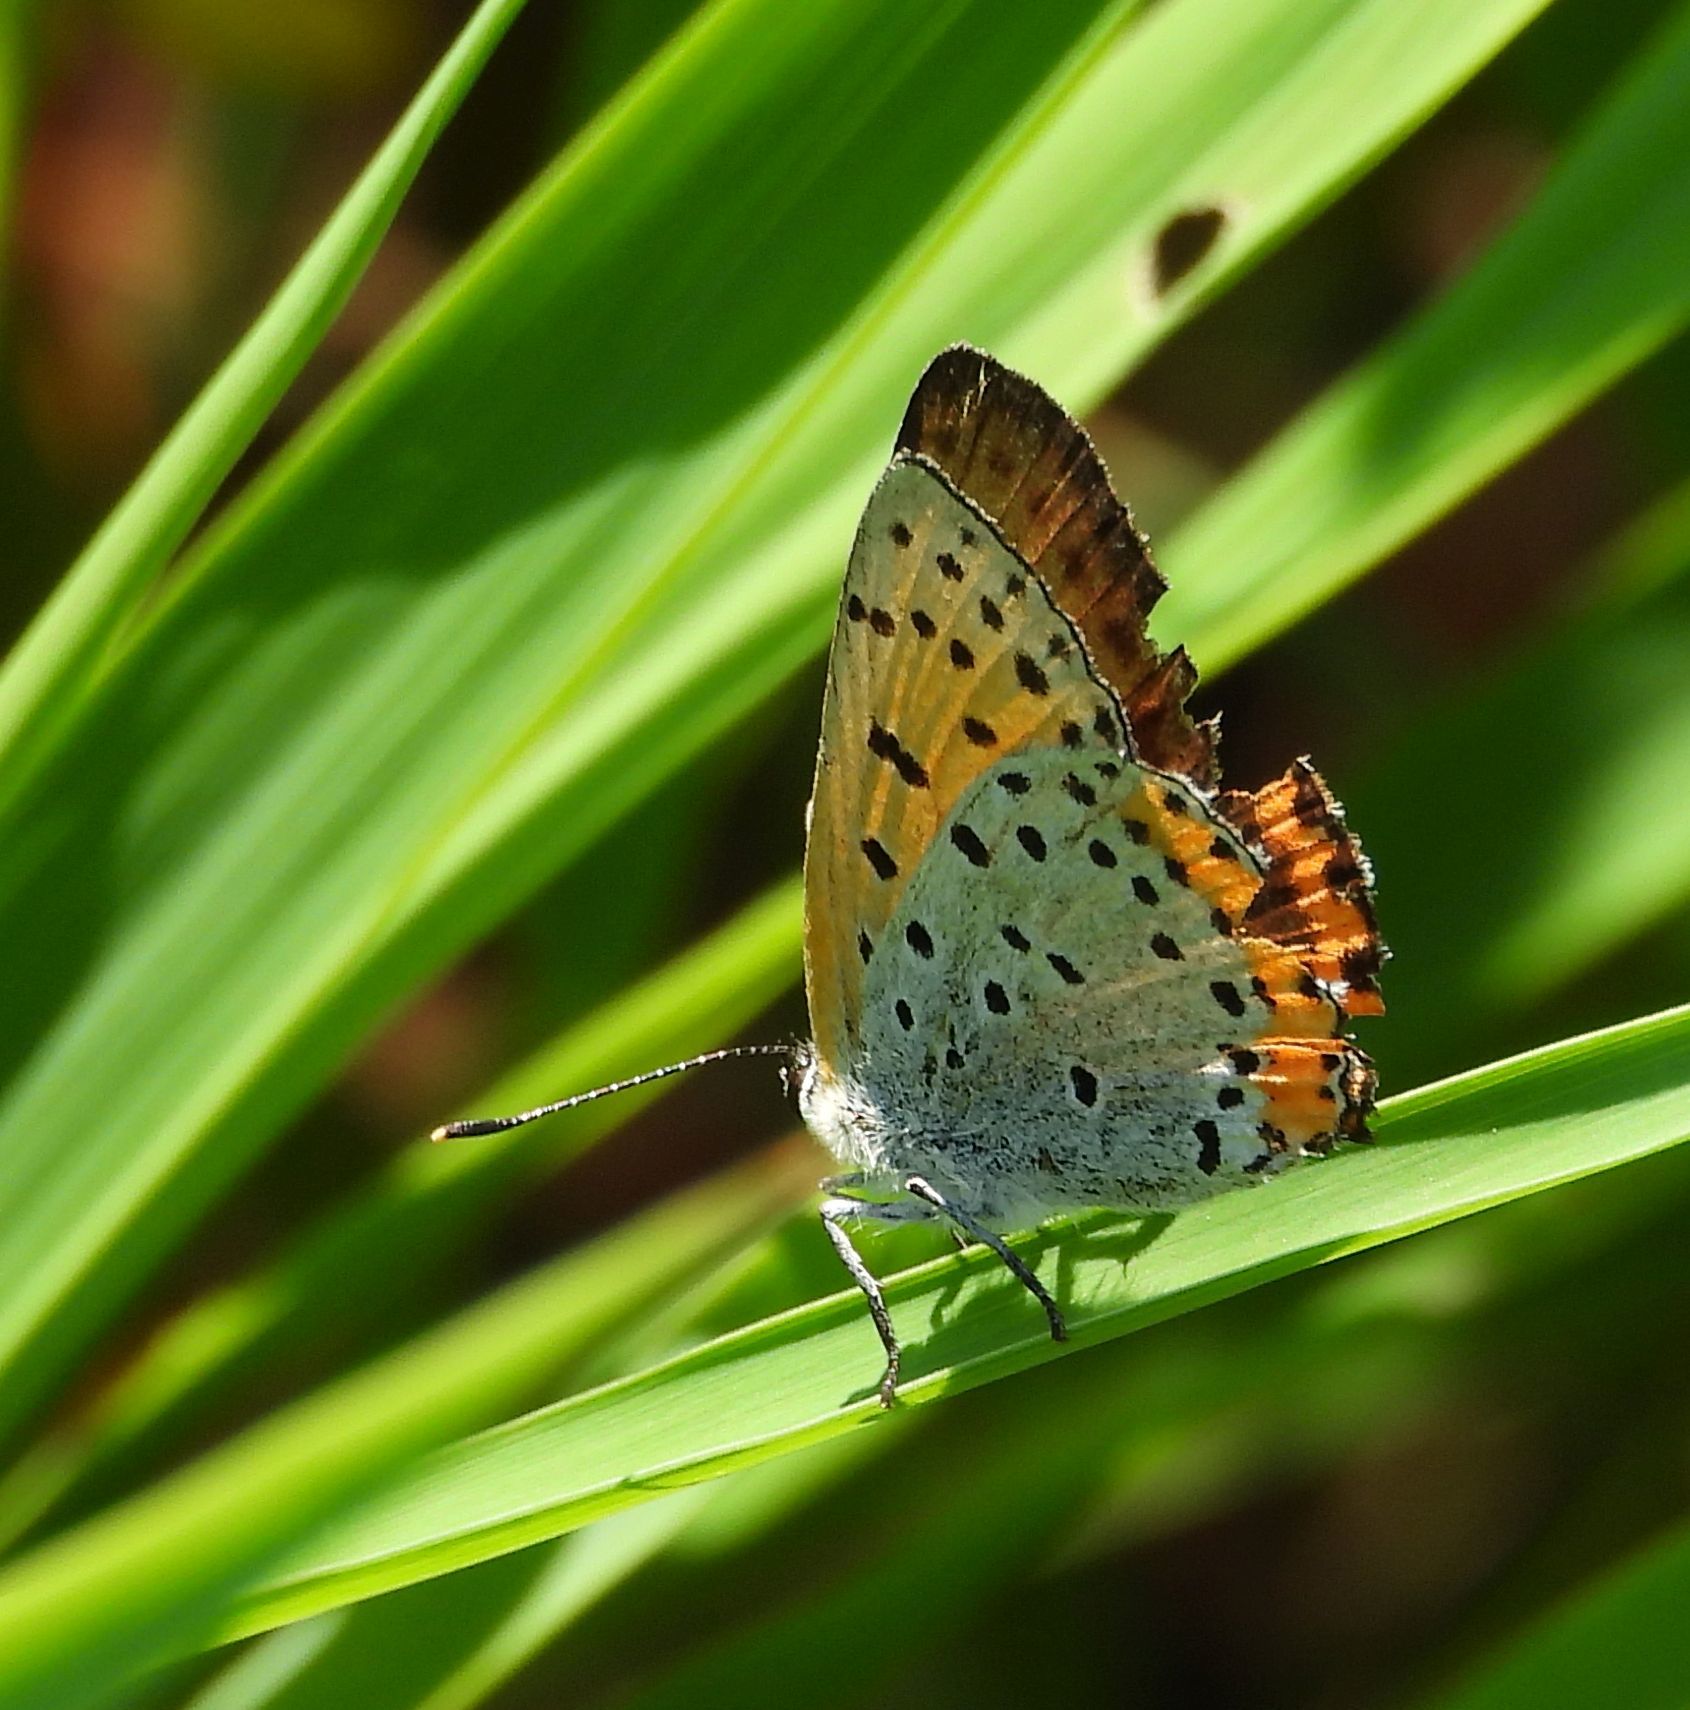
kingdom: Animalia
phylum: Arthropoda
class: Insecta
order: Lepidoptera
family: Lycaenidae
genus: Tharsalea
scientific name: Tharsalea hyllus
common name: Bronze copper
